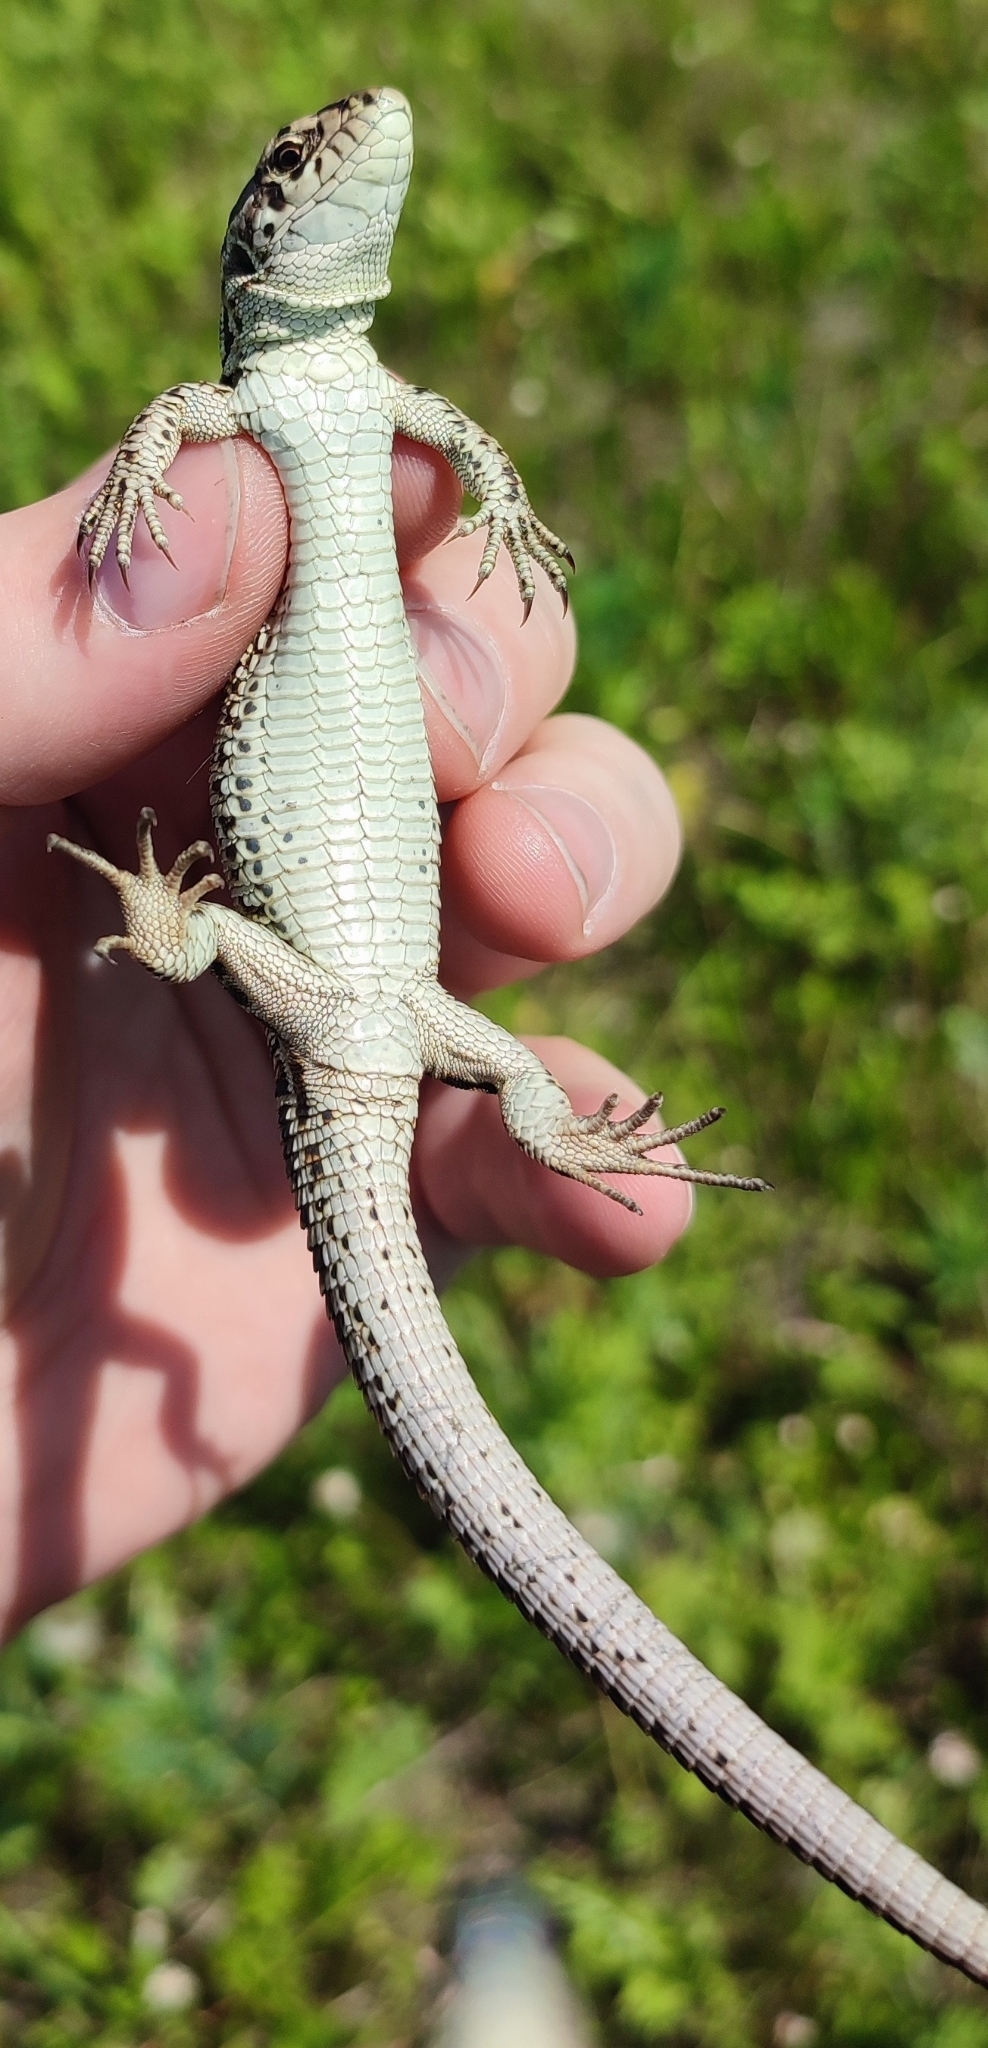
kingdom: Animalia
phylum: Chordata
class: Squamata
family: Lacertidae
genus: Lacerta
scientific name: Lacerta agilis
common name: Sand lizard
